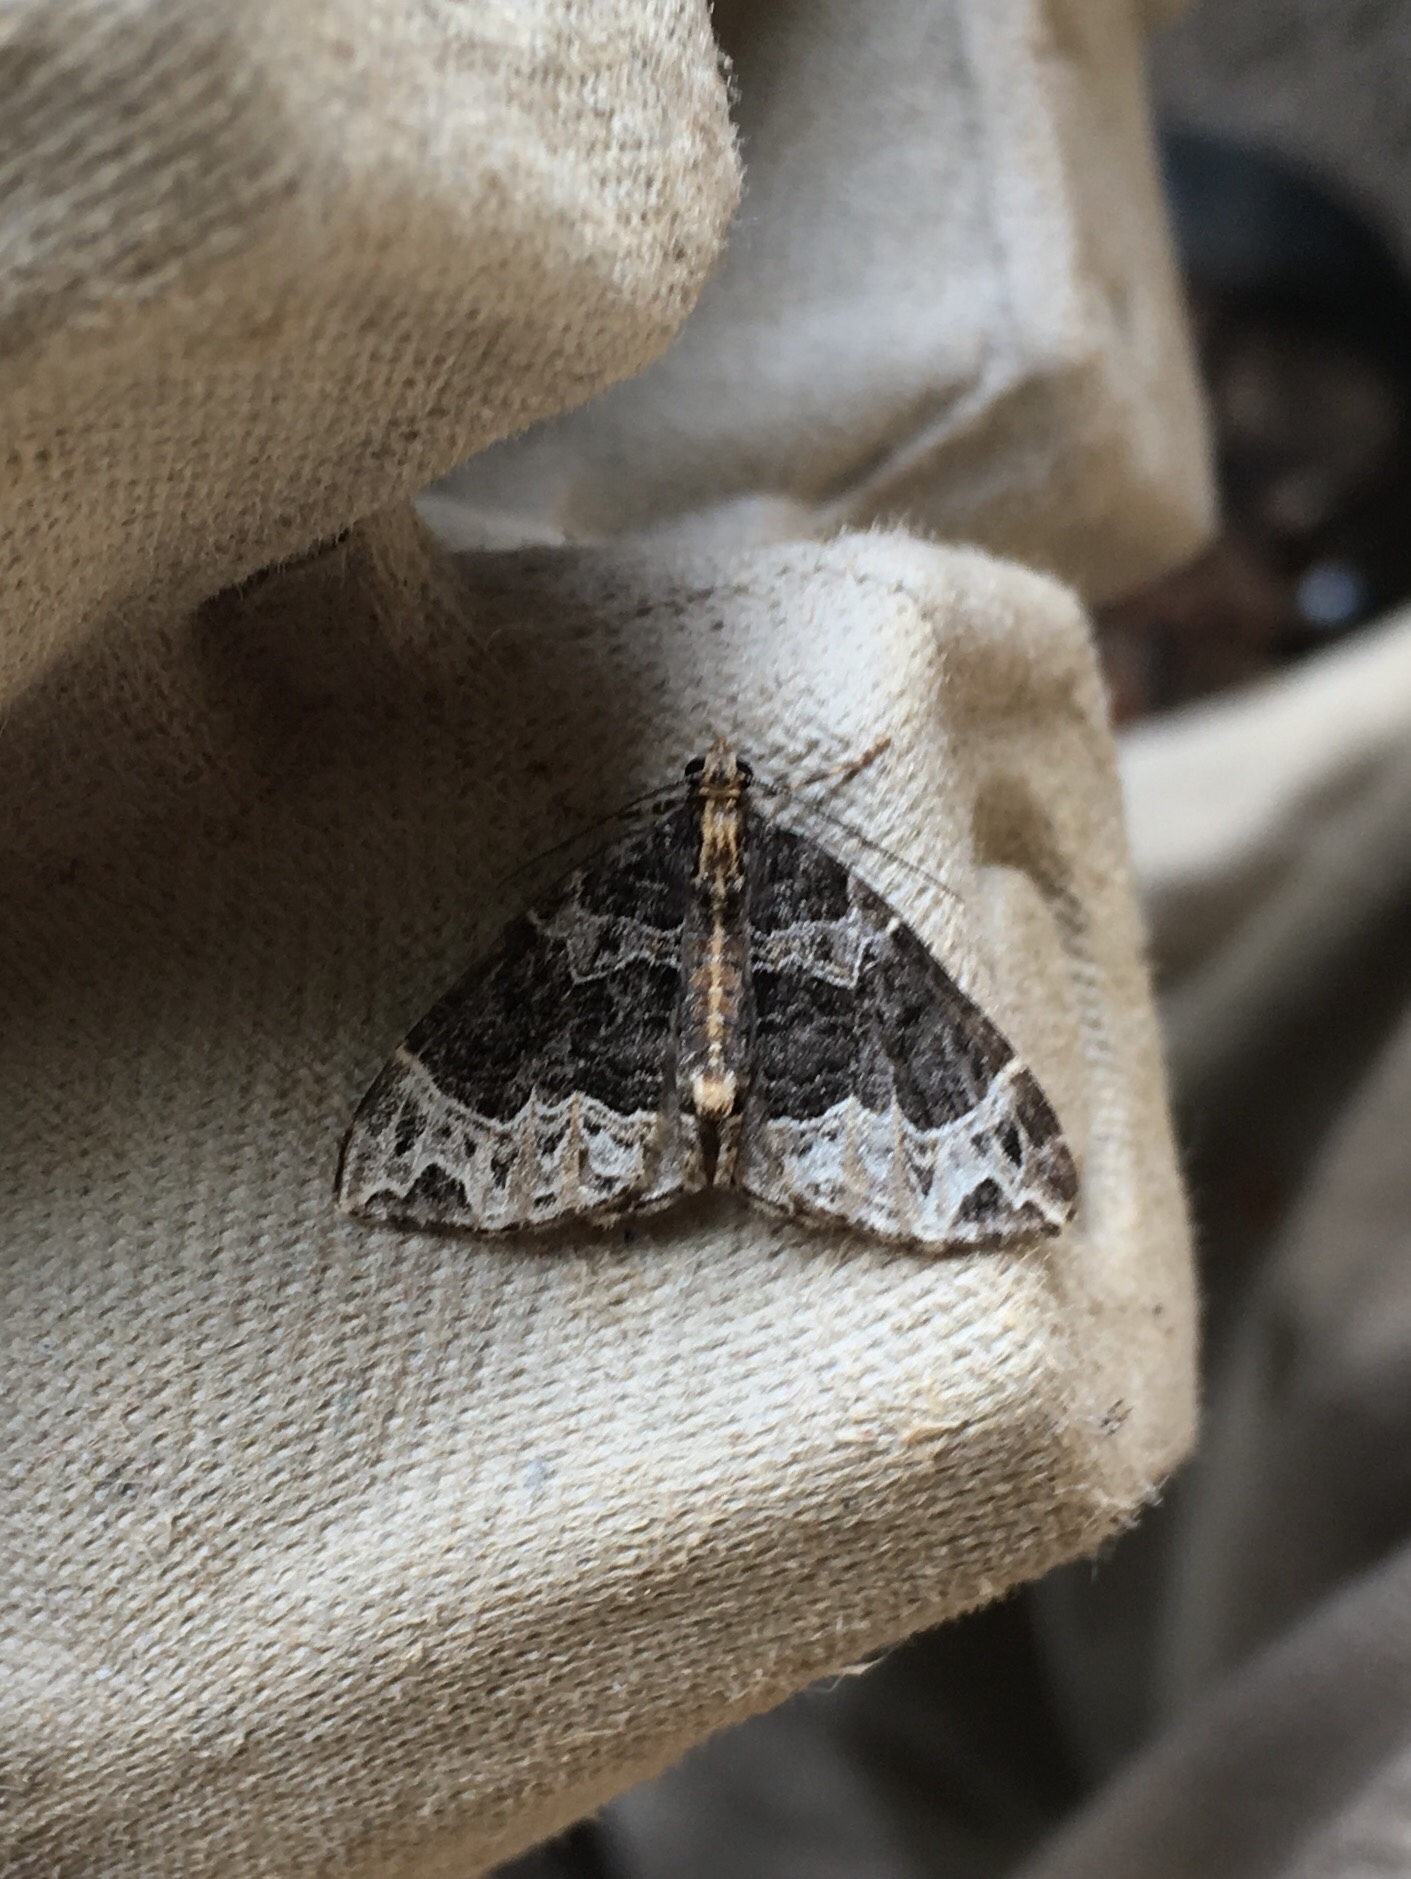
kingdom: Animalia
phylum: Arthropoda
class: Insecta
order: Lepidoptera
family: Geometridae
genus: Ecliptopera
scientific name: Ecliptopera silaceata
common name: Small phoenix
